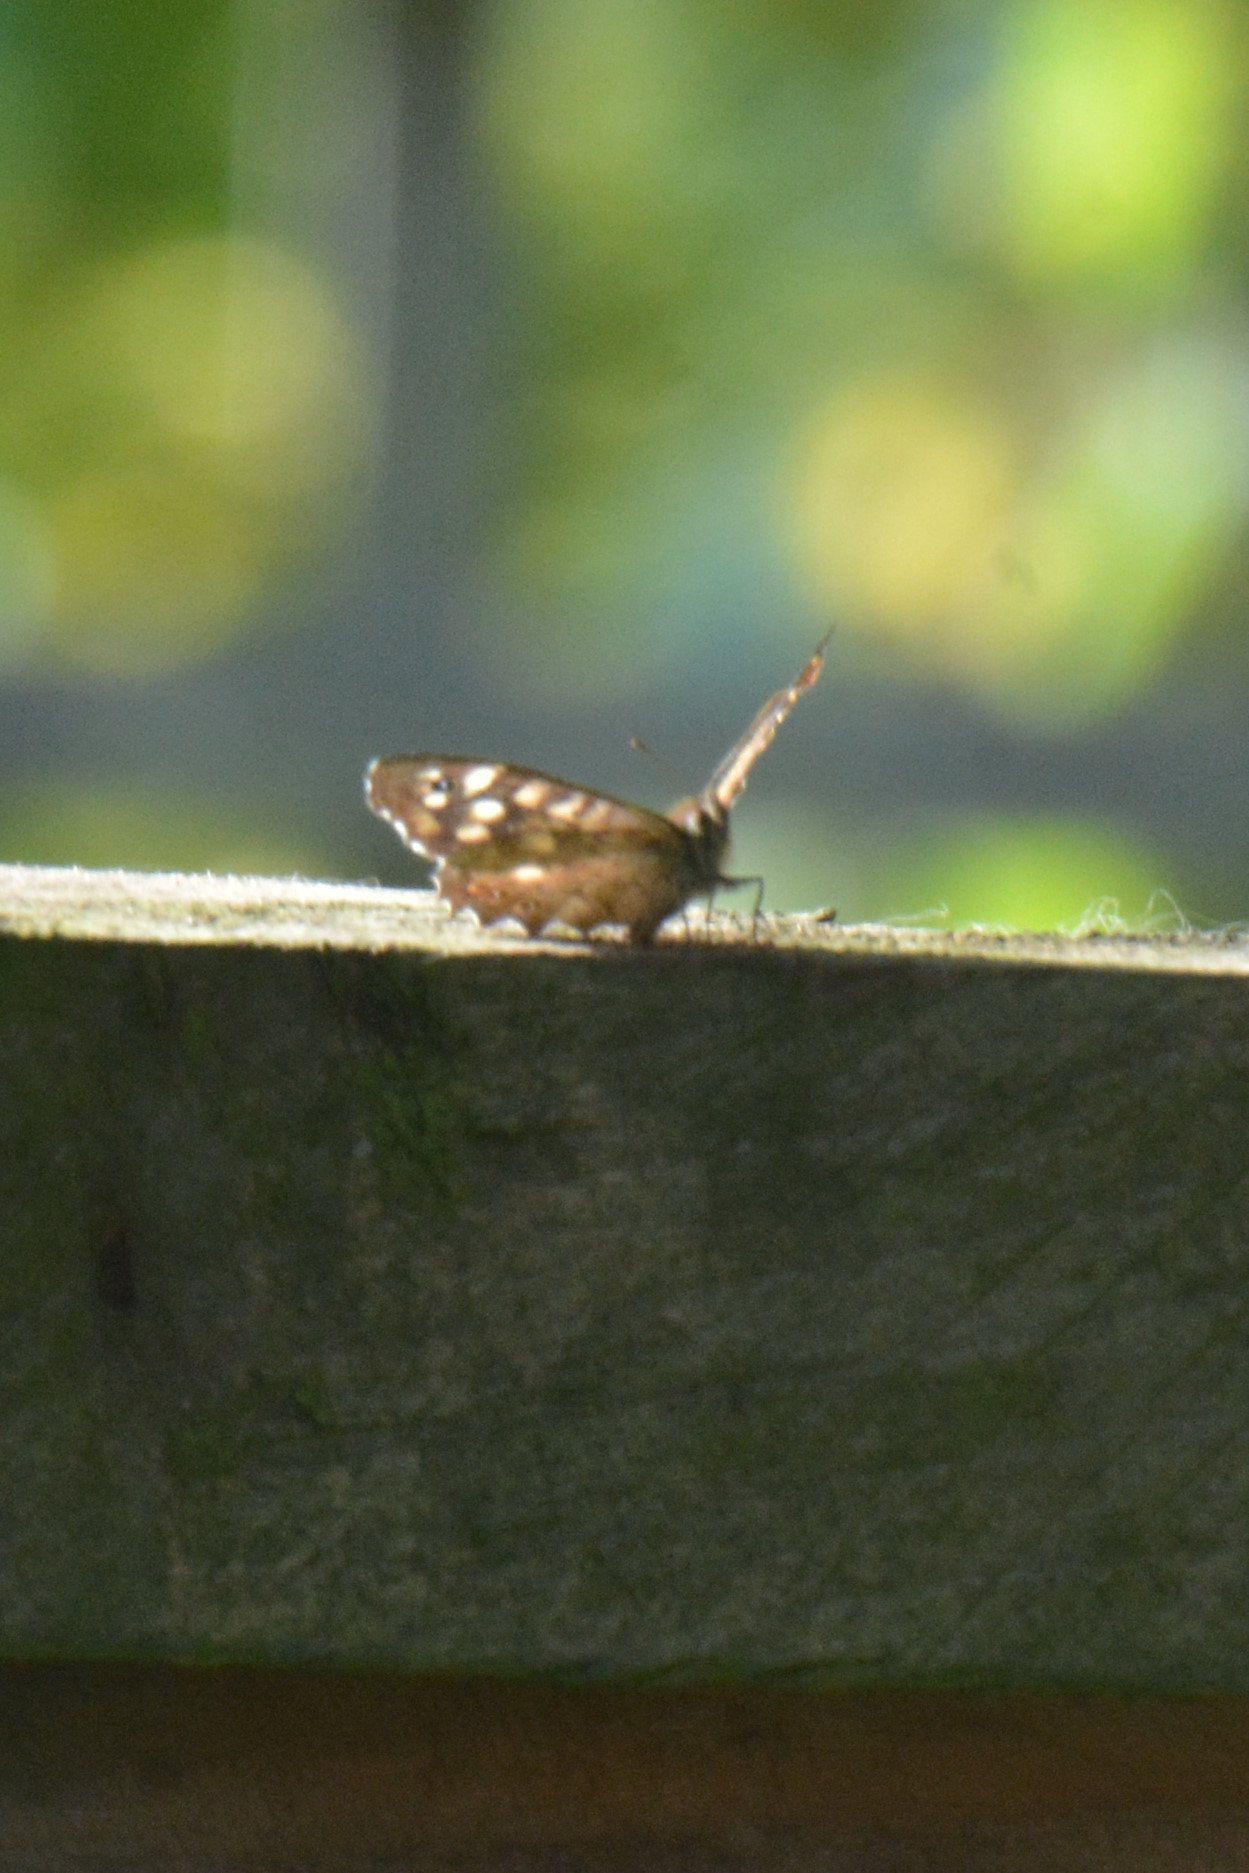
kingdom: Animalia
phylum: Arthropoda
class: Insecta
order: Lepidoptera
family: Nymphalidae
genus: Pararge
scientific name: Pararge aegeria
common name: Speckled wood
